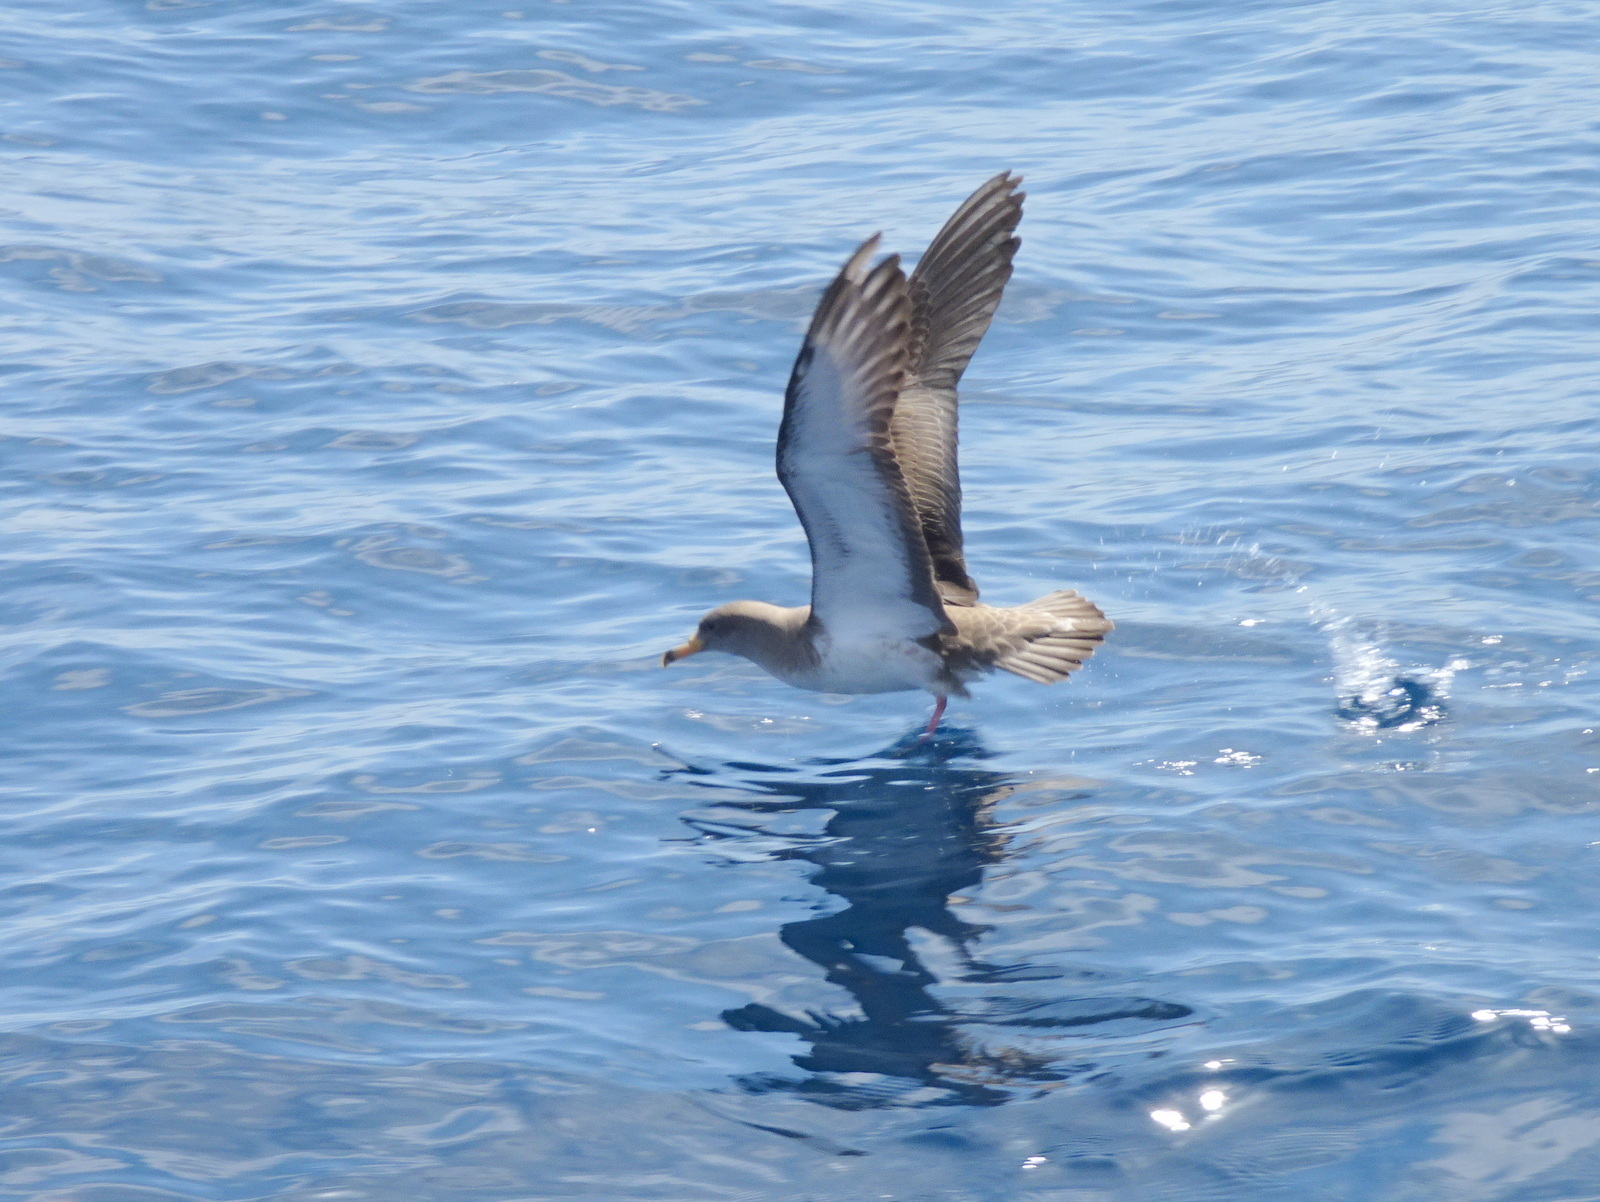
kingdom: Animalia
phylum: Chordata
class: Aves
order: Procellariiformes
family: Procellariidae
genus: Calonectris
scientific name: Calonectris diomedea
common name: Cory's shearwater
